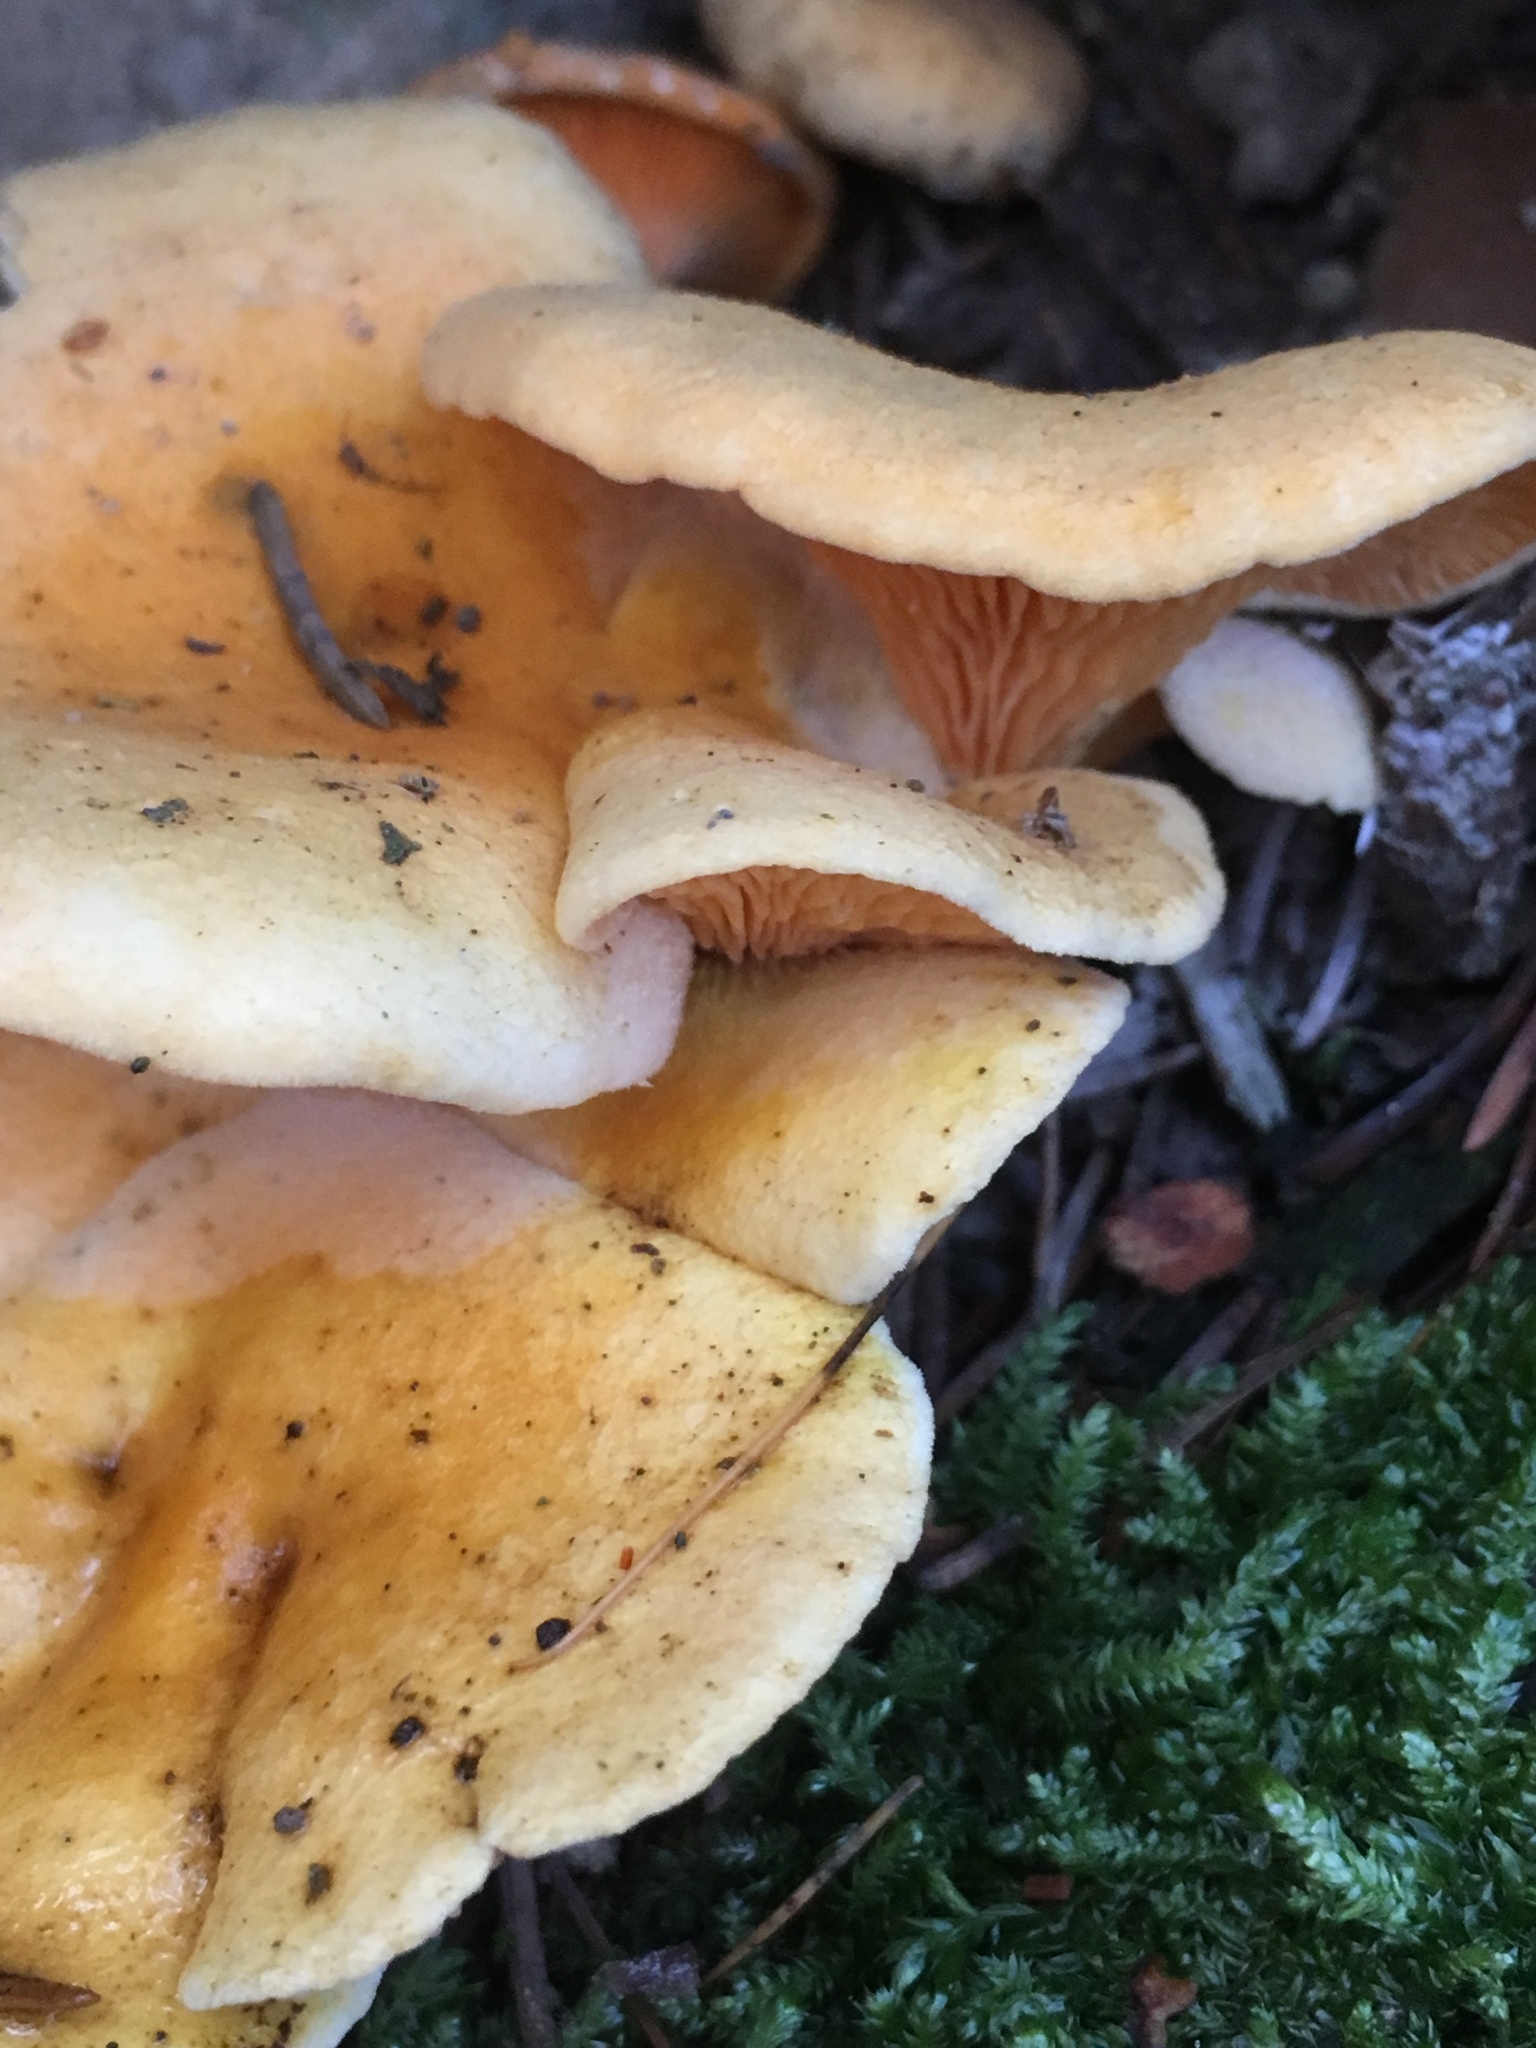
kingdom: Fungi
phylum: Basidiomycota
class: Agaricomycetes
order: Boletales
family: Hygrophoropsidaceae
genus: Hygrophoropsis
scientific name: Hygrophoropsis aurantiaca
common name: False chanterelle
